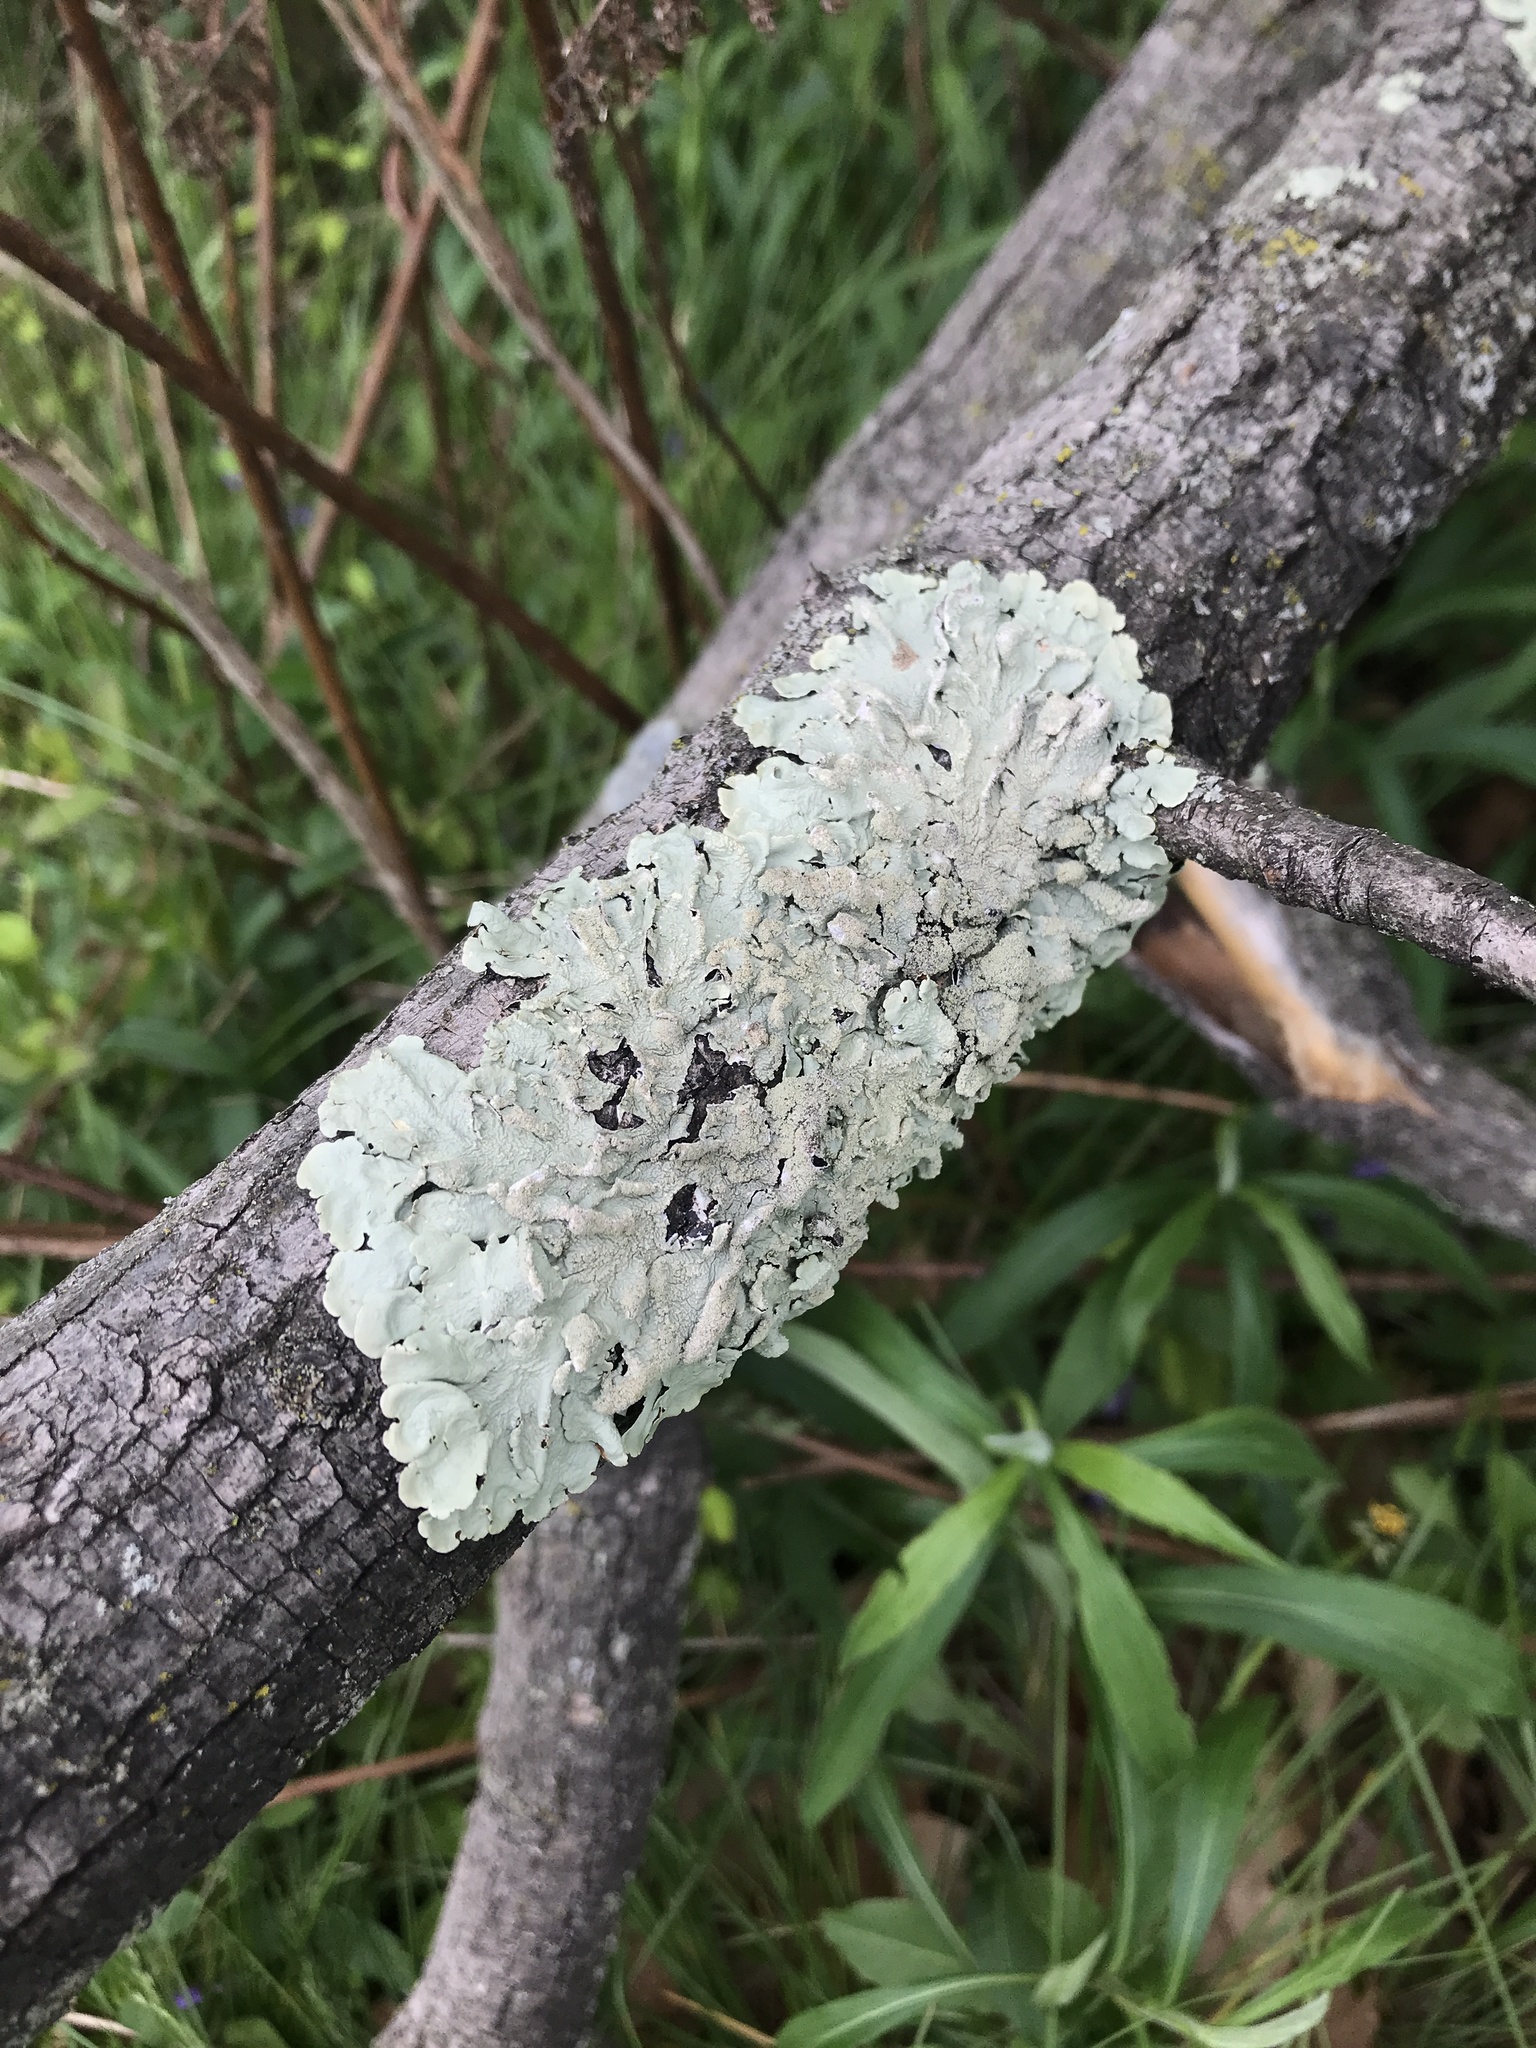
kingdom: Fungi
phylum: Ascomycota
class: Lecanoromycetes
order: Lecanorales
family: Parmeliaceae
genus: Flavoparmelia
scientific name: Flavoparmelia caperata
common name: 40-mile per hour lichen
